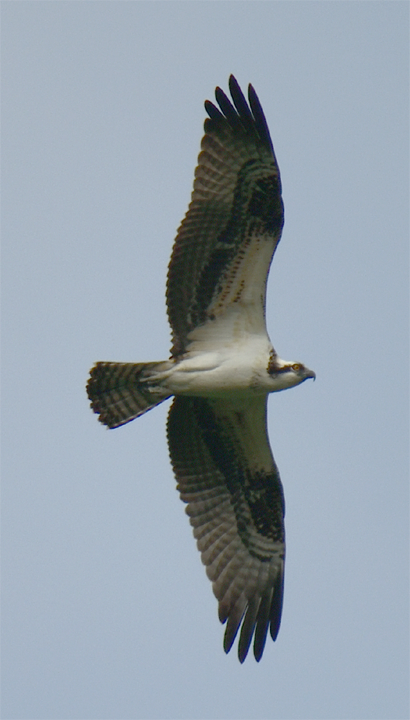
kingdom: Animalia
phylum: Chordata
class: Aves
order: Accipitriformes
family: Pandionidae
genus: Pandion
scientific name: Pandion haliaetus
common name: Osprey
